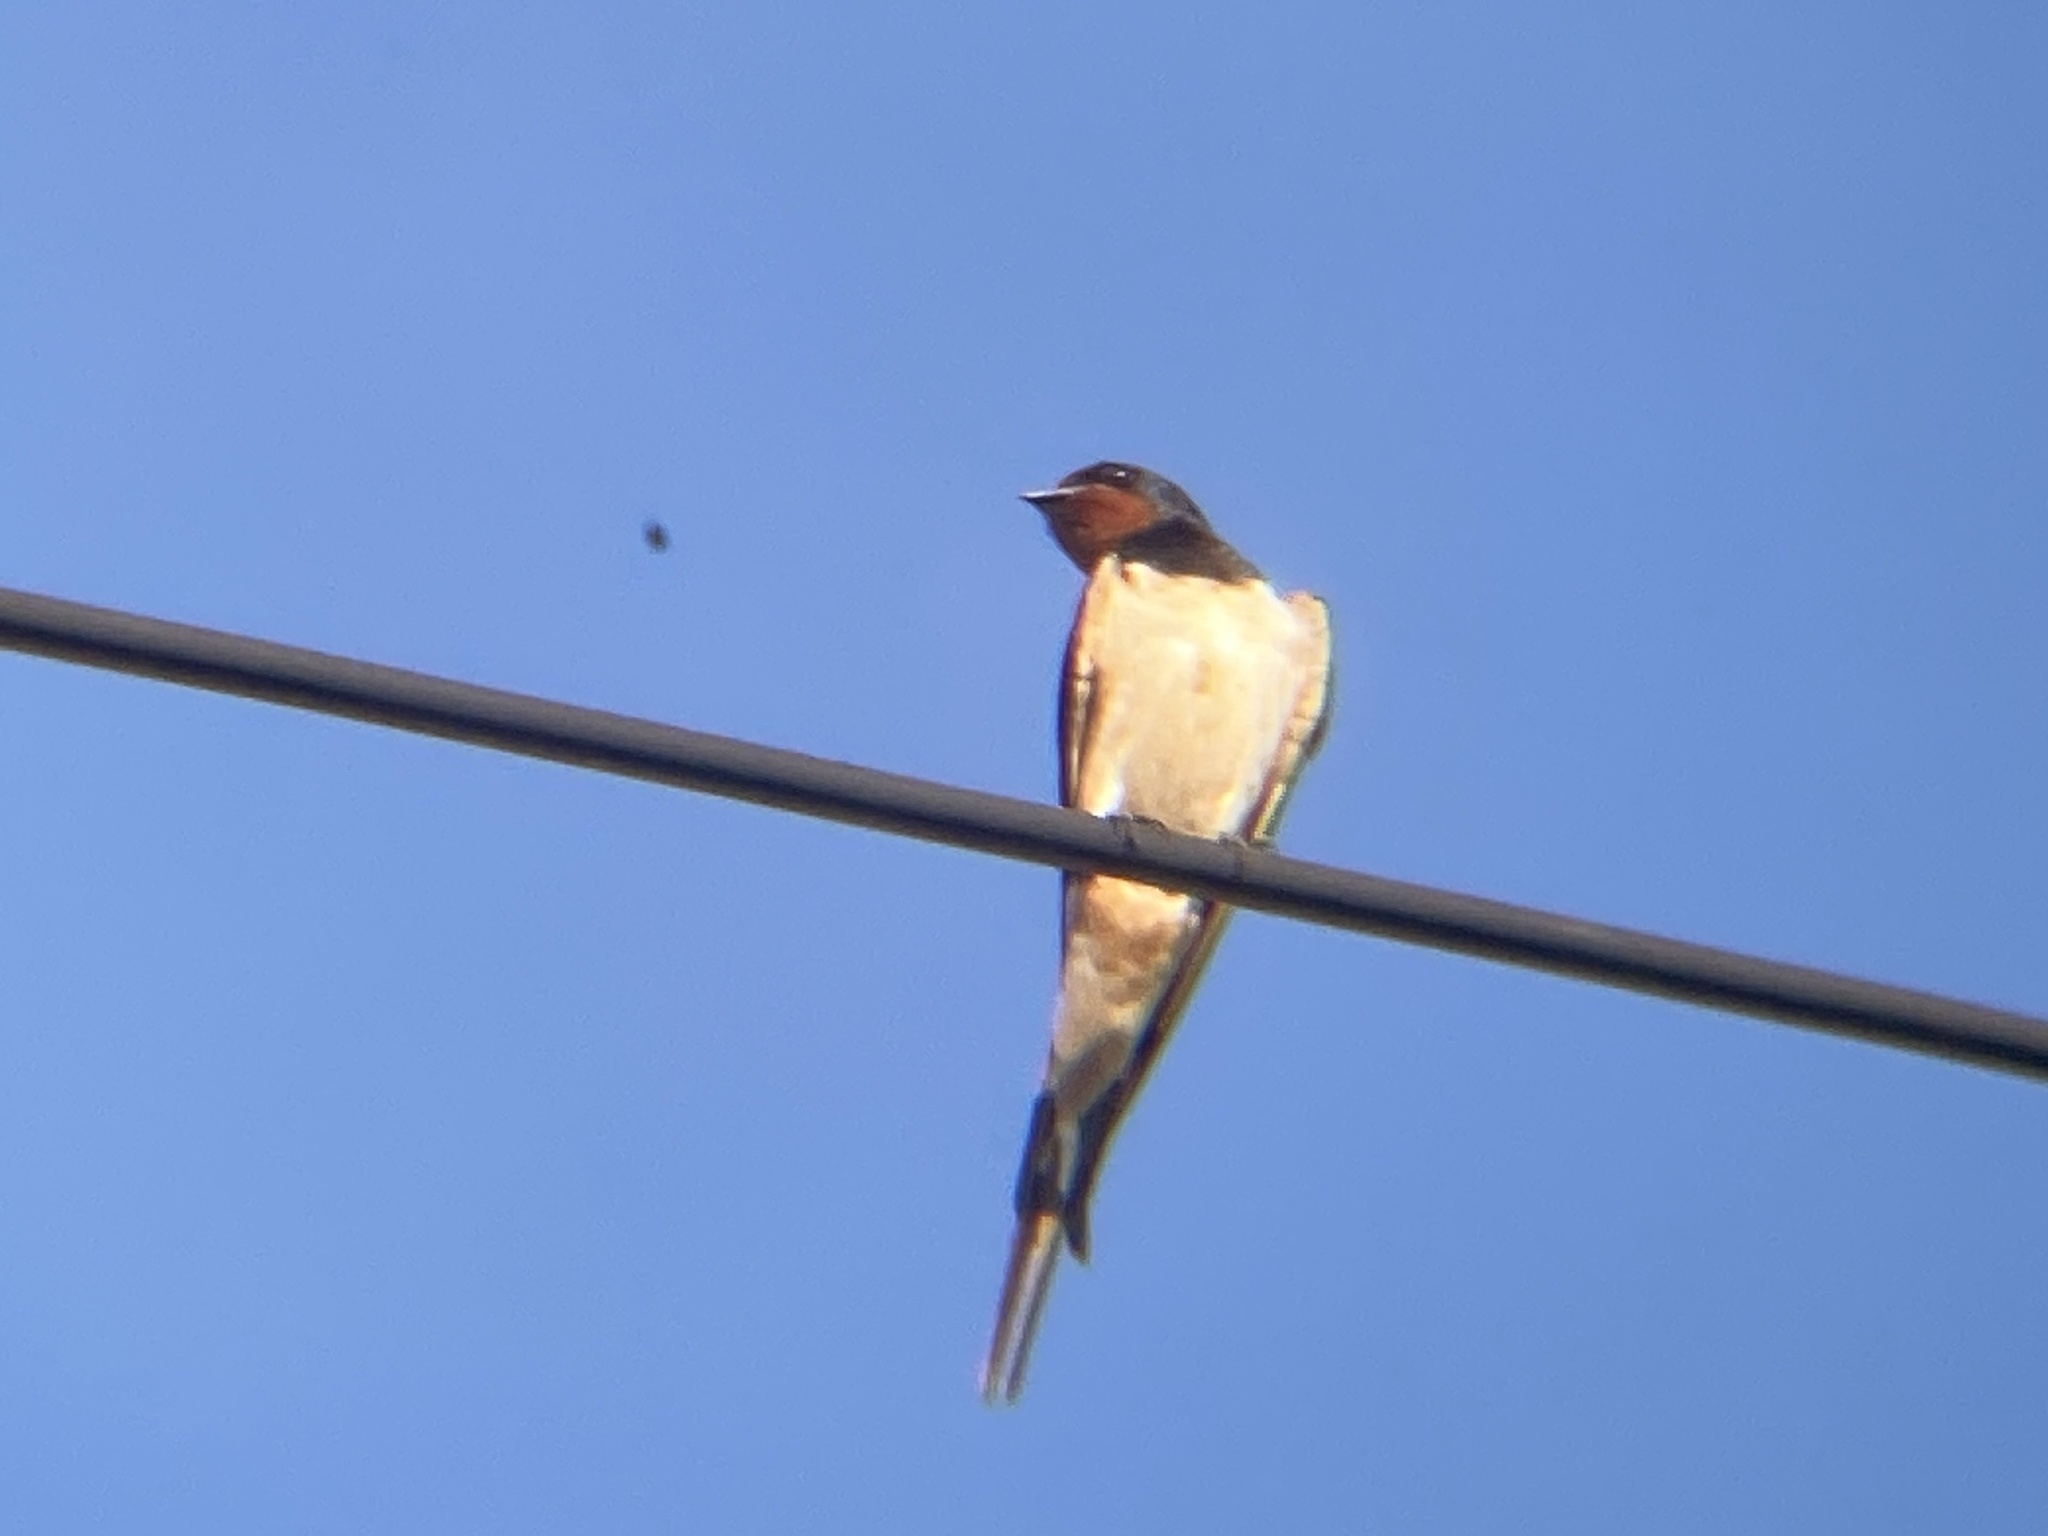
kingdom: Animalia
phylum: Chordata
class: Aves
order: Passeriformes
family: Hirundinidae
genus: Hirundo
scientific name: Hirundo rustica
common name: Barn swallow
